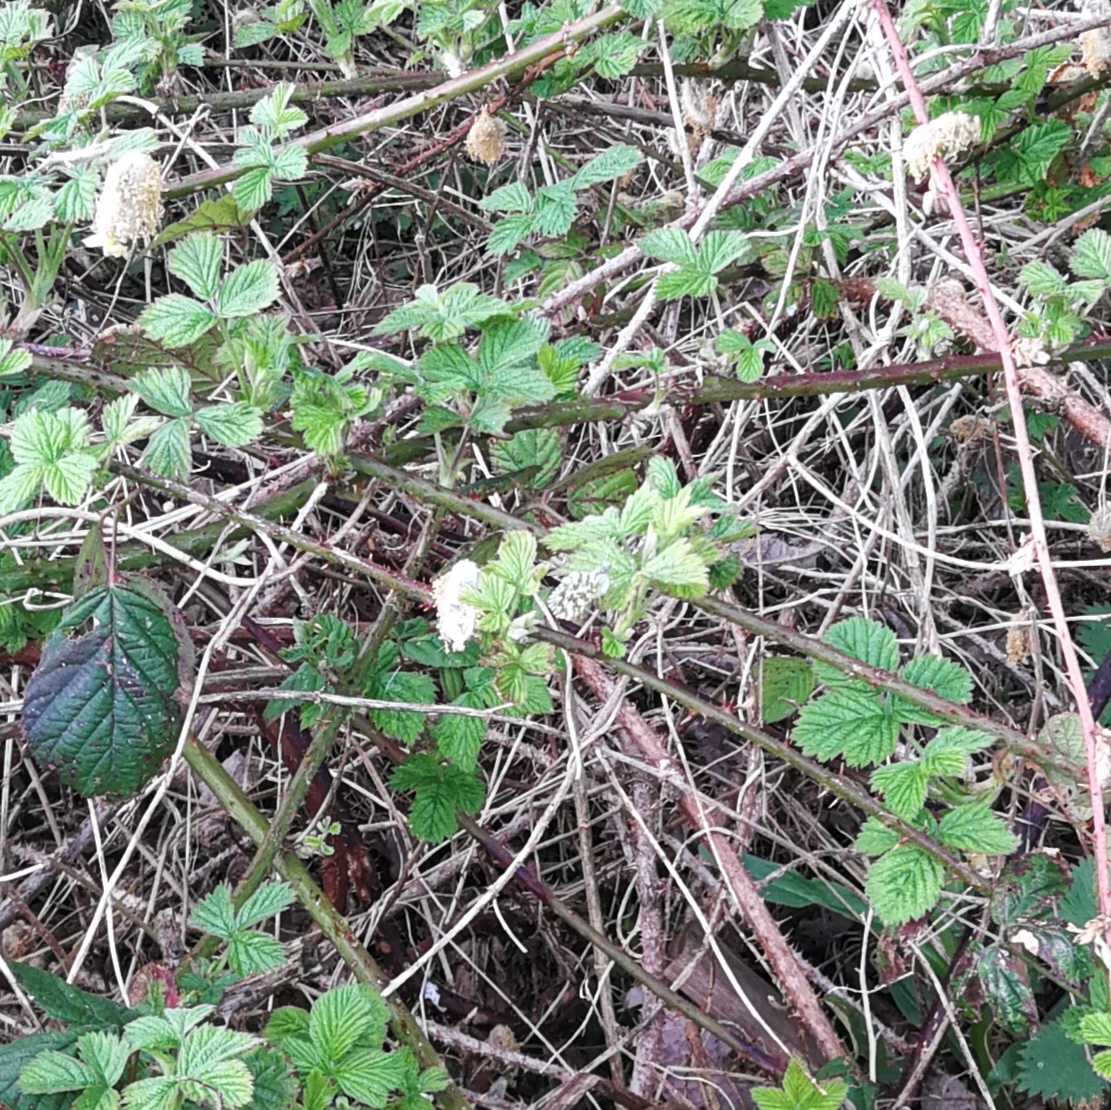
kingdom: Animalia
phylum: Arthropoda
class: Insecta
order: Lepidoptera
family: Pieridae
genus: Anthocharis
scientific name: Anthocharis cardamines
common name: Orange-tip
